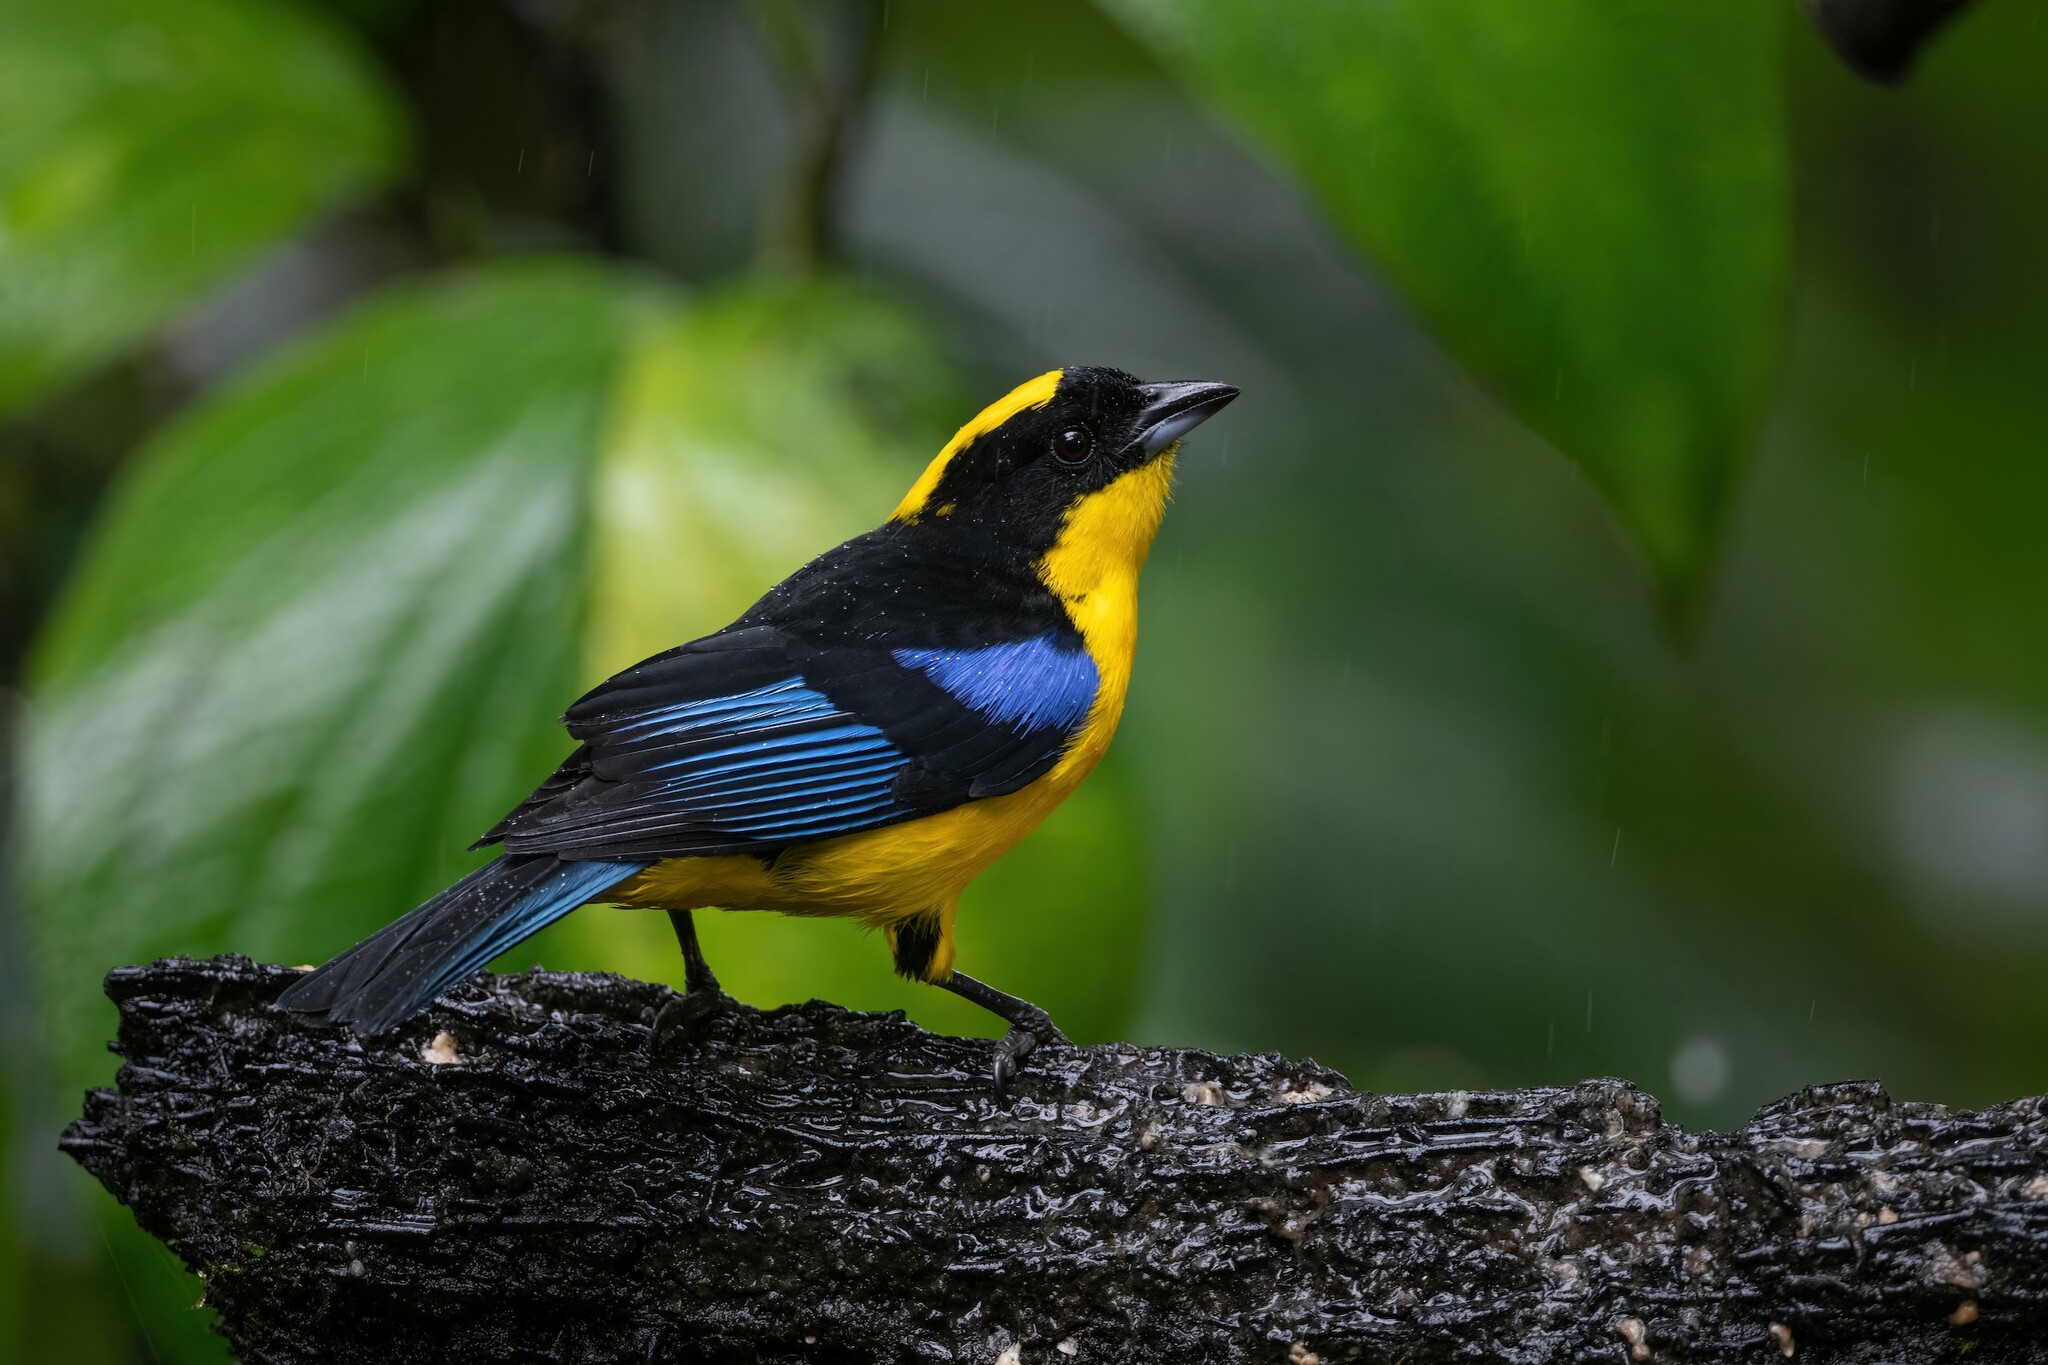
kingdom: Animalia
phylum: Chordata
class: Aves
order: Passeriformes
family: Thraupidae
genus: Anisognathus
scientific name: Anisognathus somptuosus
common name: Blue-winged mountain-tanager
